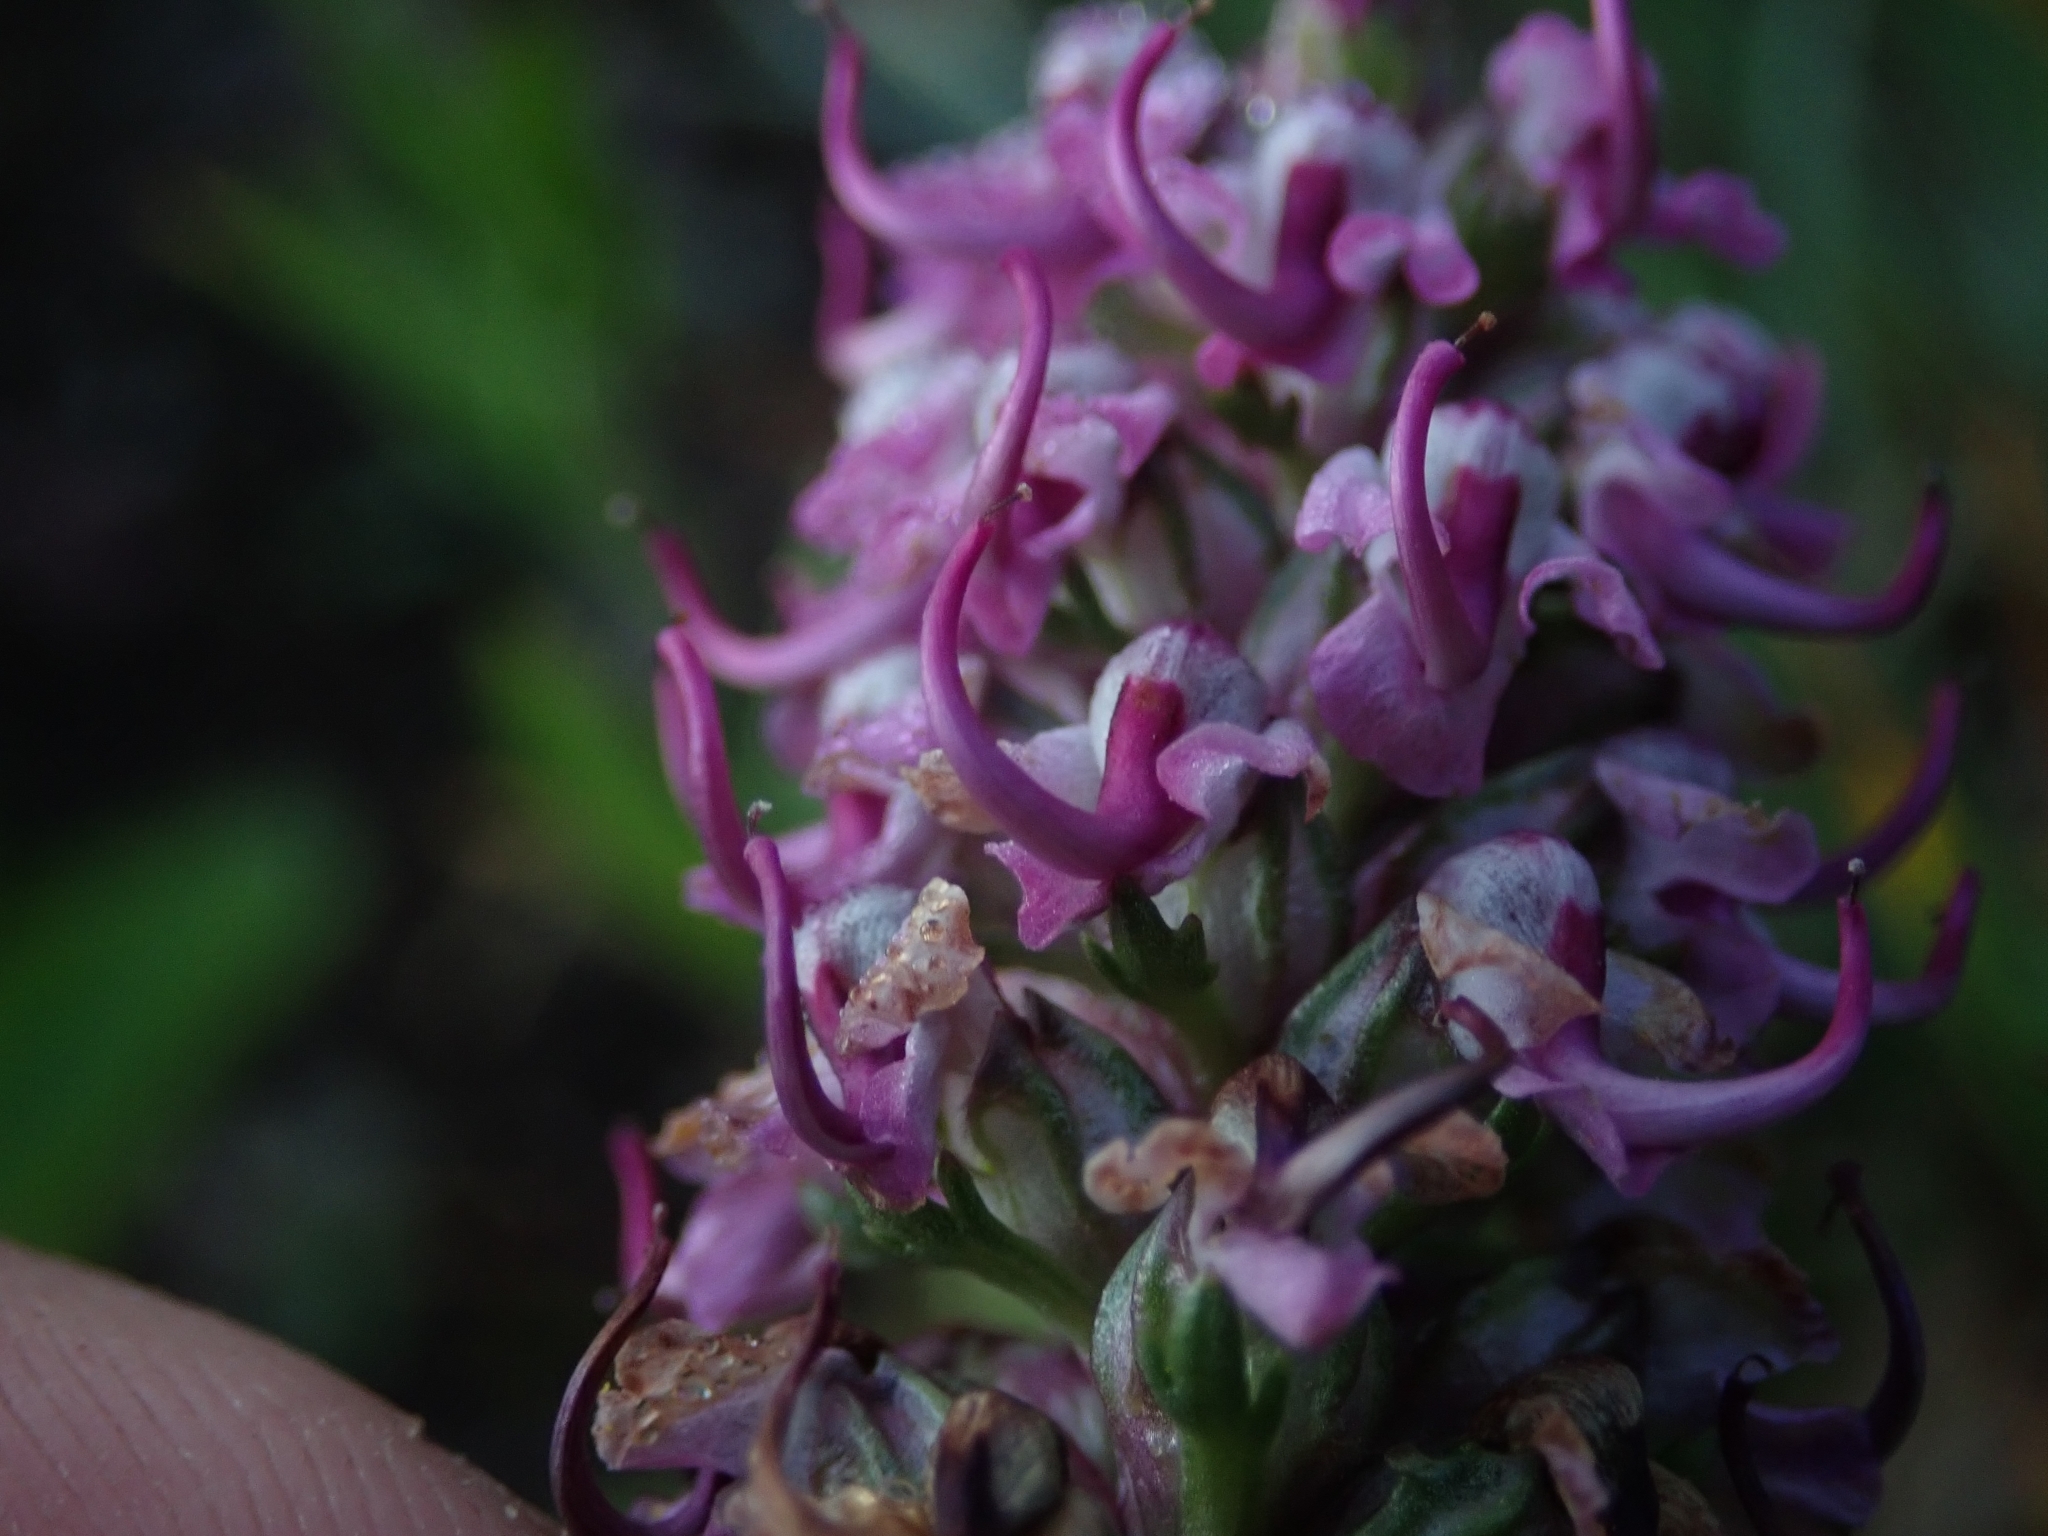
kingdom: Plantae
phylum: Tracheophyta
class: Magnoliopsida
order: Lamiales
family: Orobanchaceae
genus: Pedicularis
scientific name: Pedicularis groenlandica
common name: Elephant's-head
